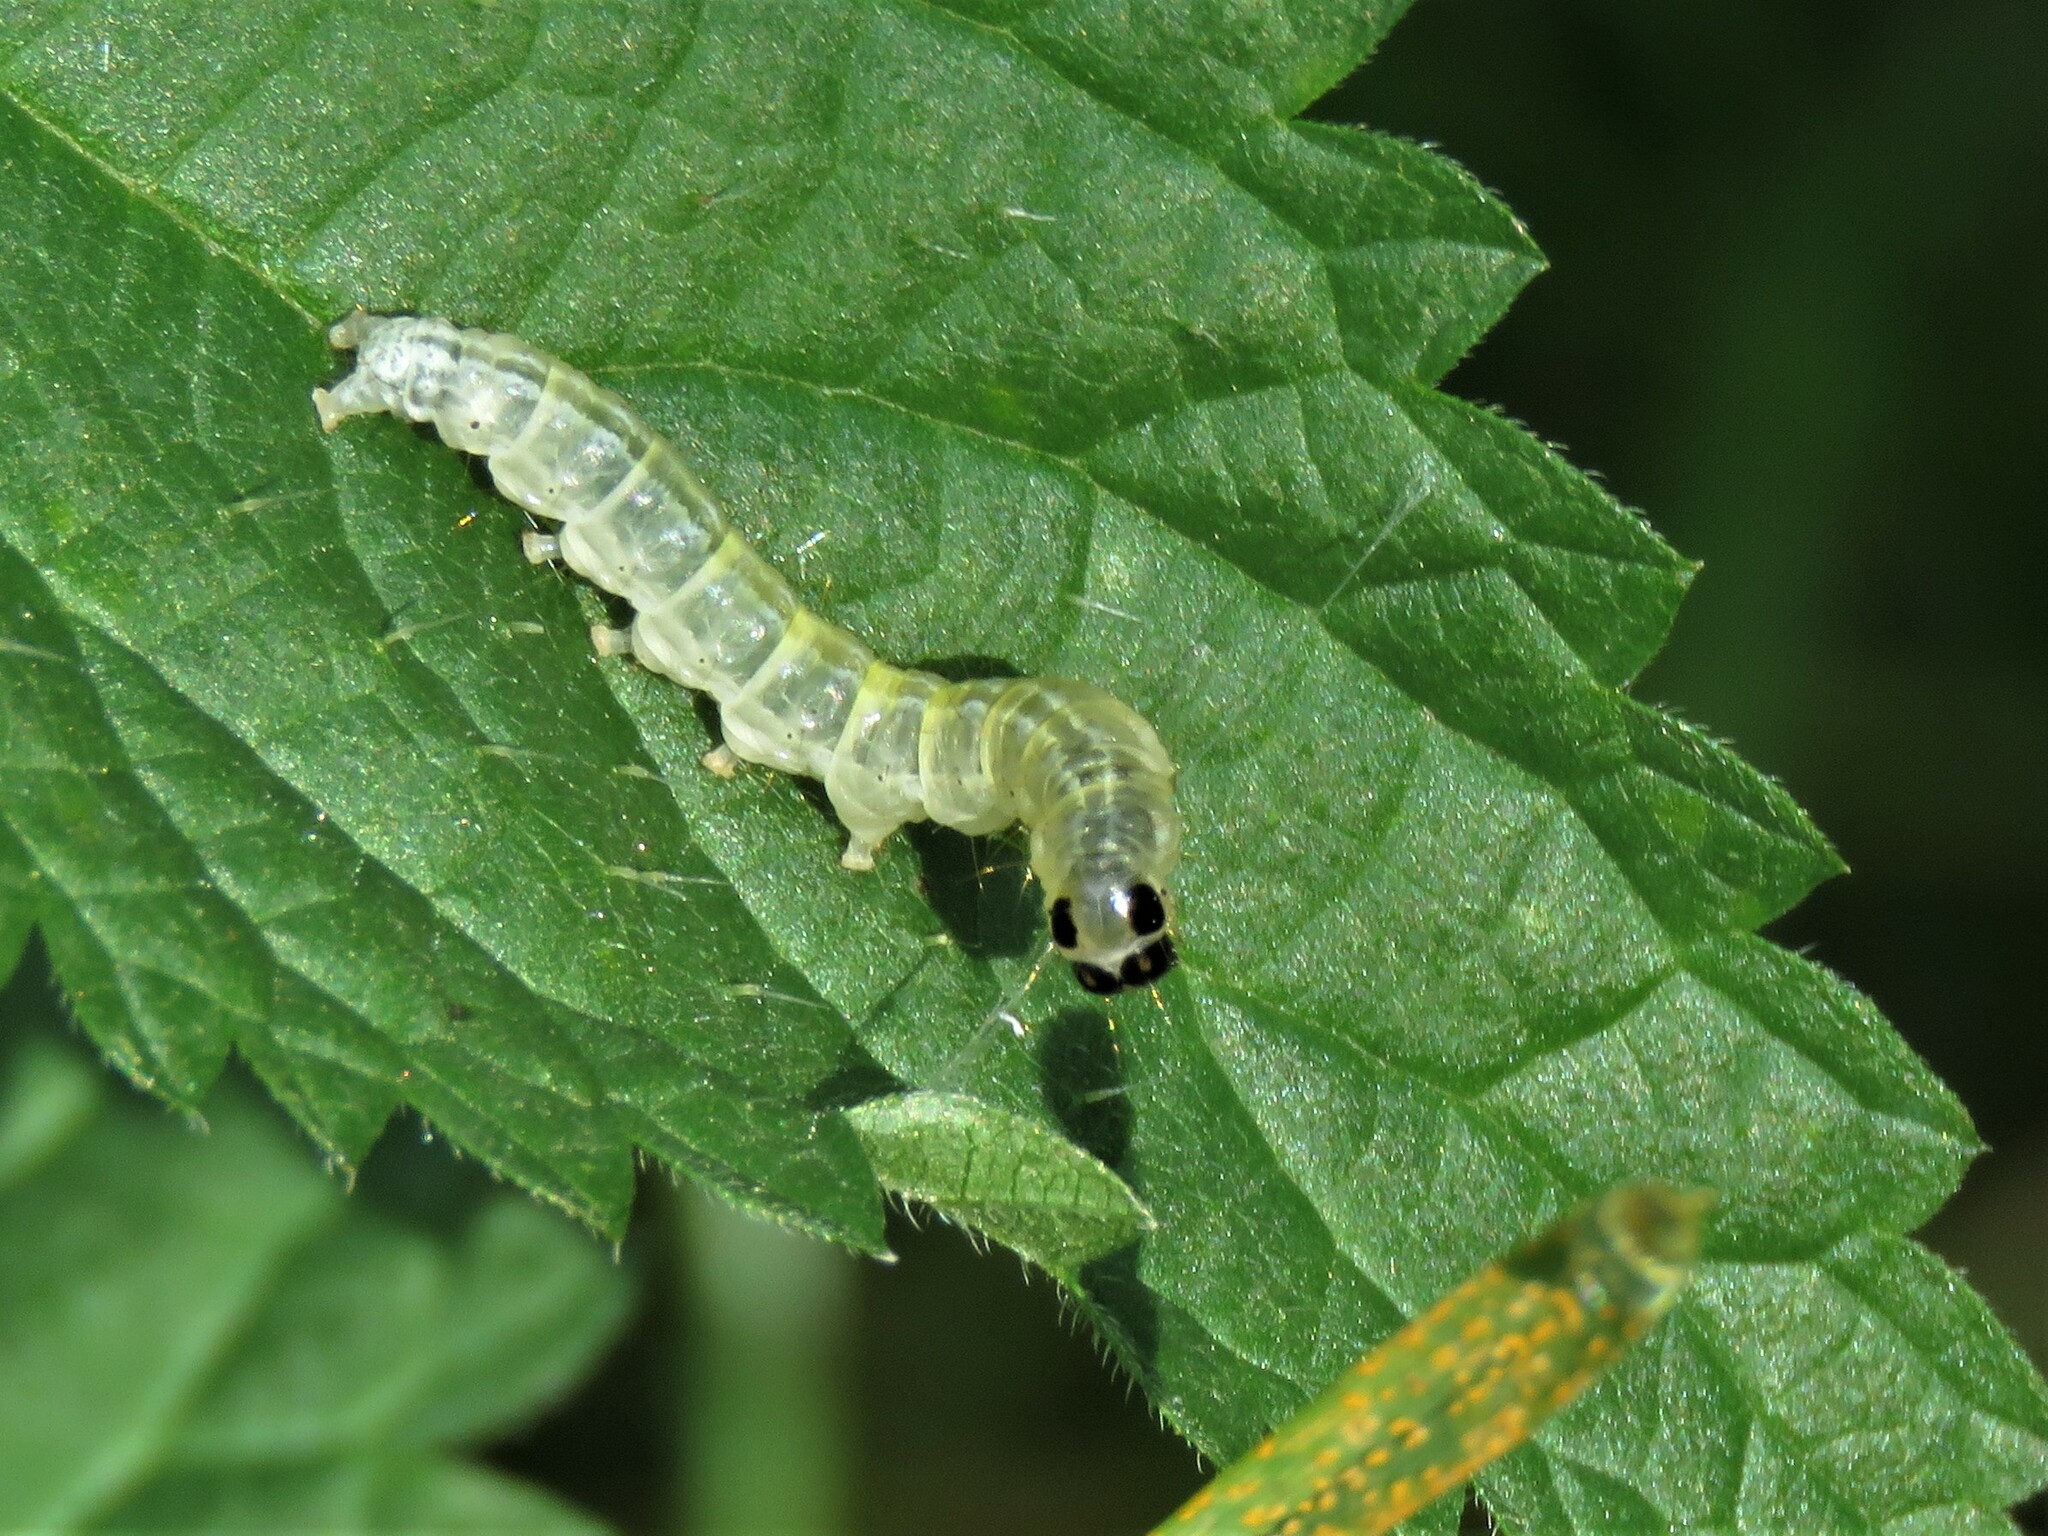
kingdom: Animalia
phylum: Arthropoda
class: Insecta
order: Lepidoptera
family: Crambidae
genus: Anania
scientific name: Anania hortulata
